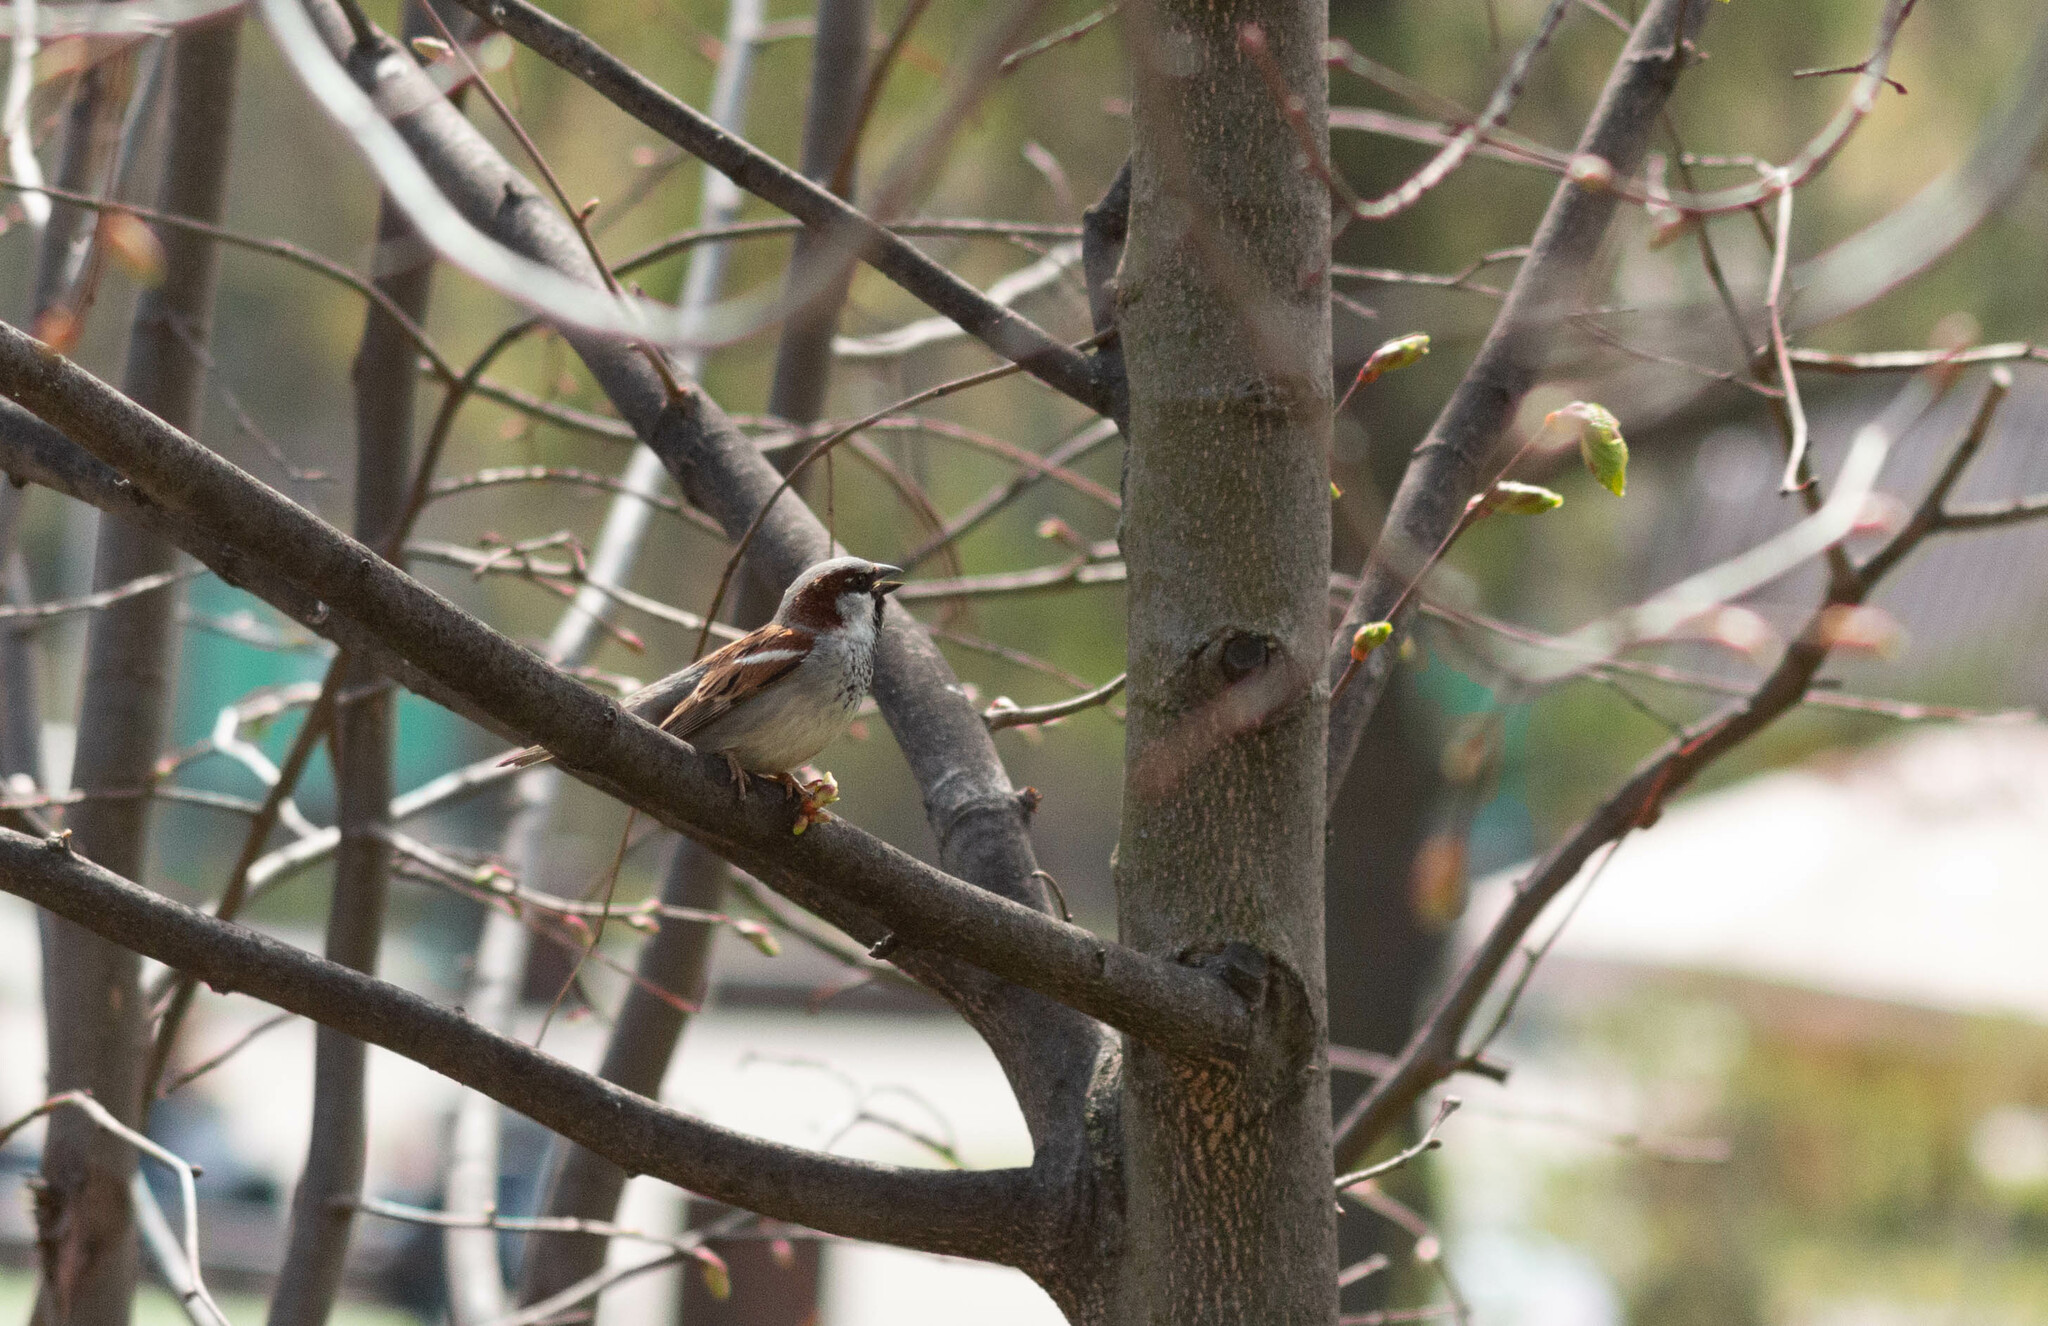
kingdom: Animalia
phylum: Chordata
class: Aves
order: Passeriformes
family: Passeridae
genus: Passer
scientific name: Passer domesticus
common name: House sparrow
